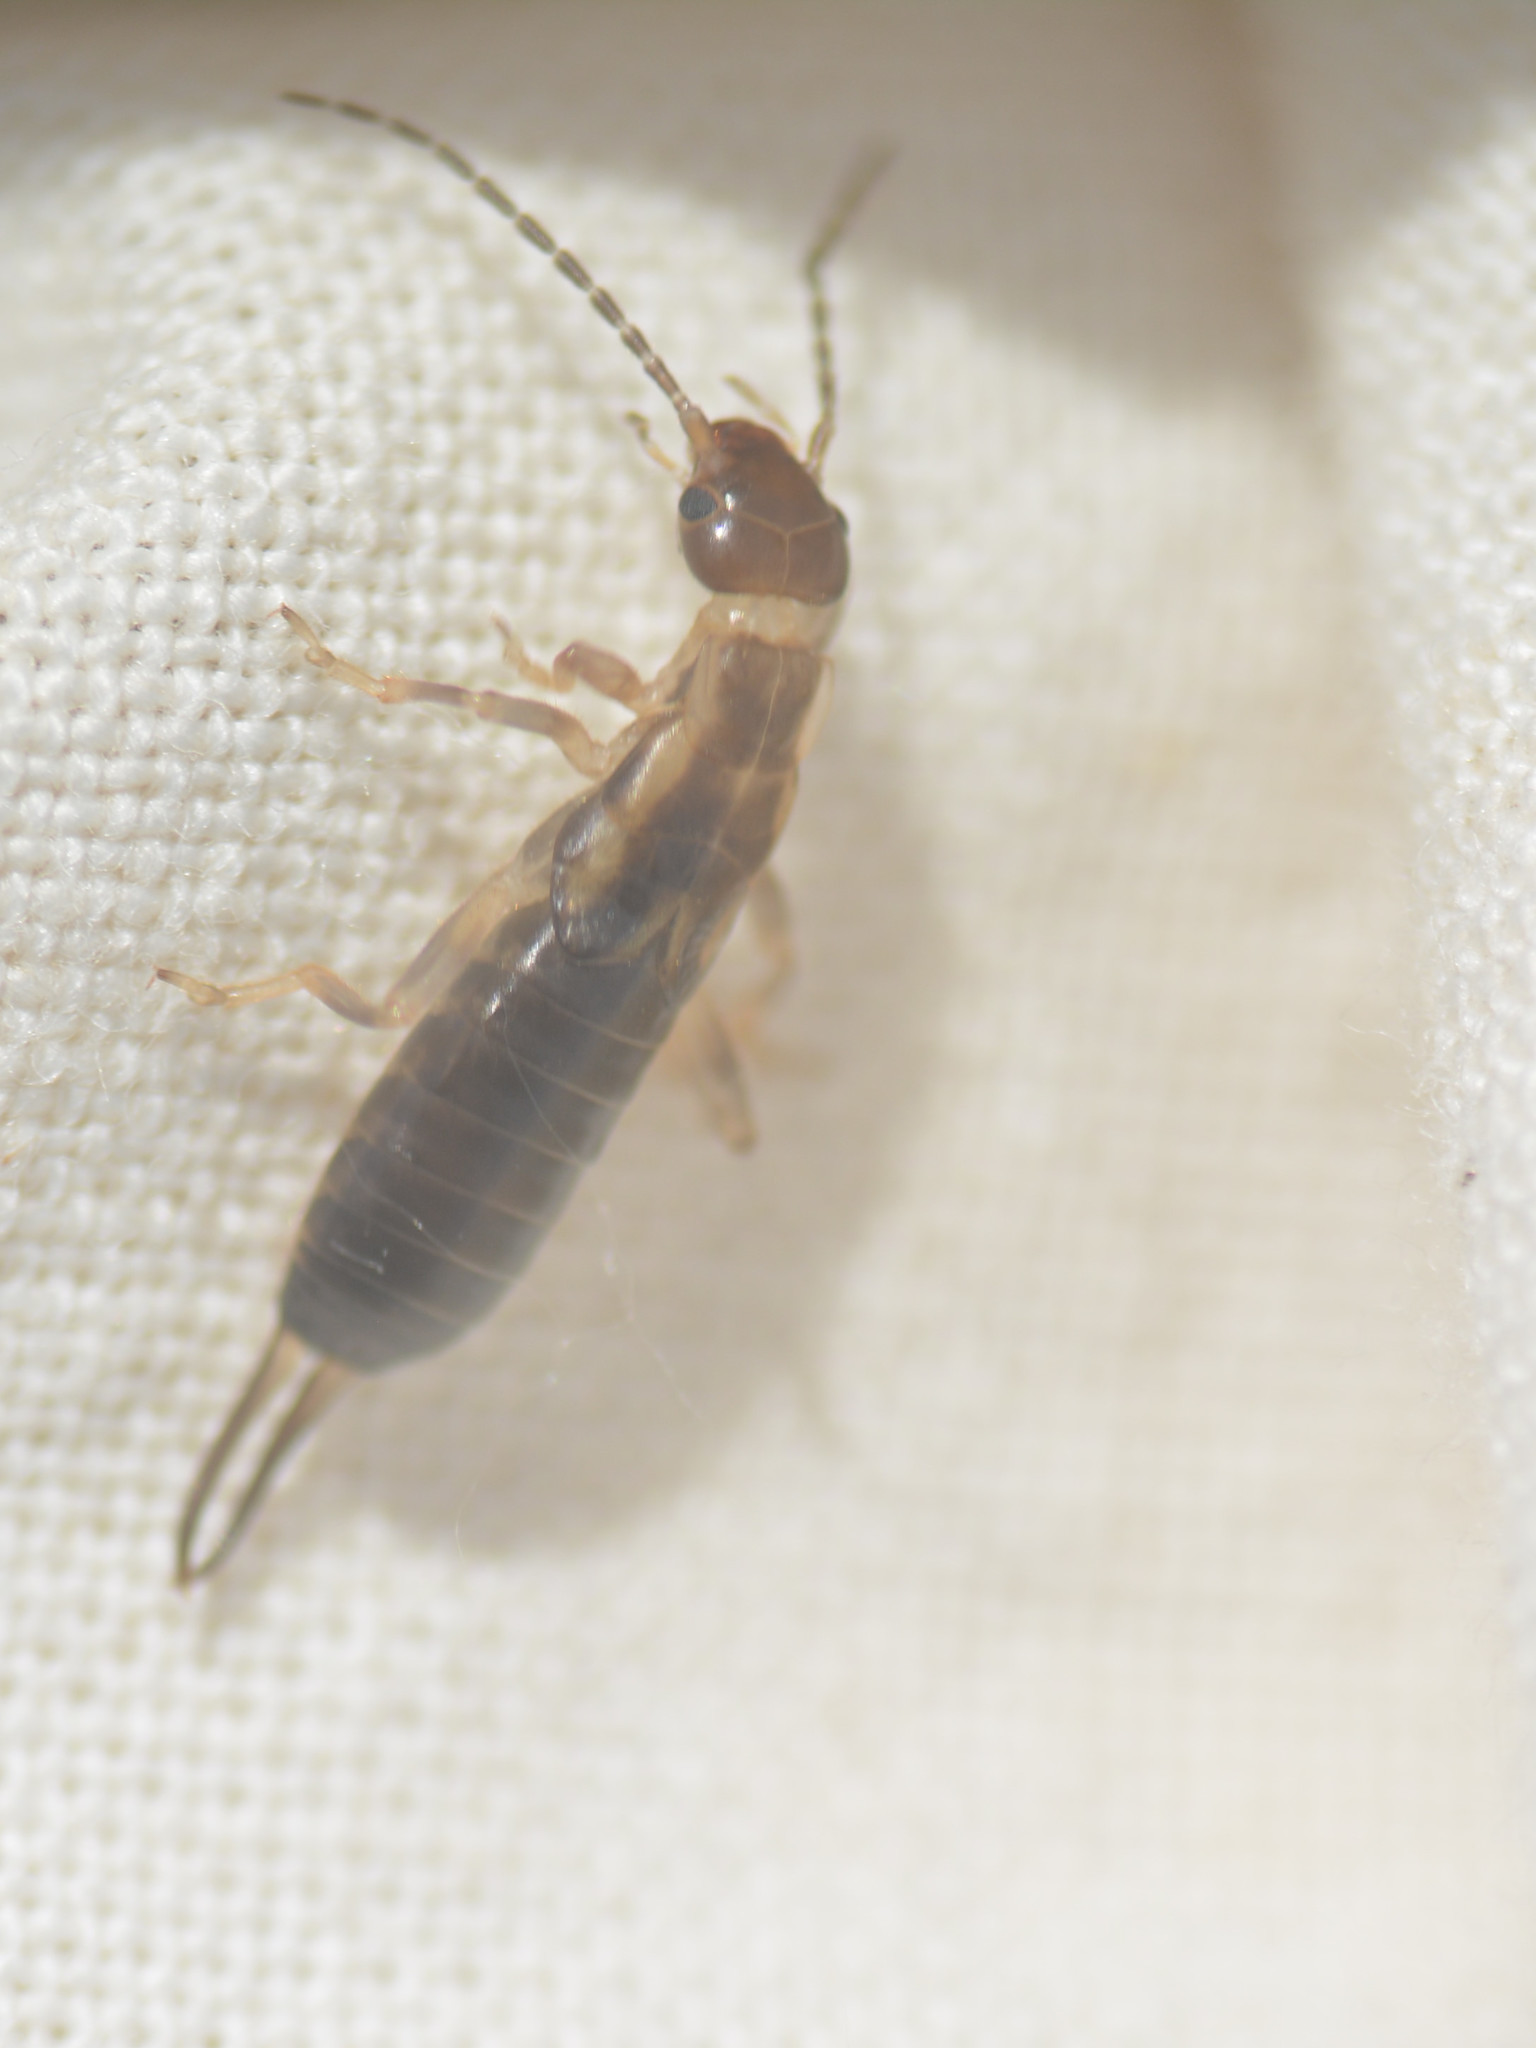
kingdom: Animalia
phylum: Arthropoda
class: Insecta
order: Dermaptera
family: Forficulidae
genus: Forficula
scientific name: Forficula
